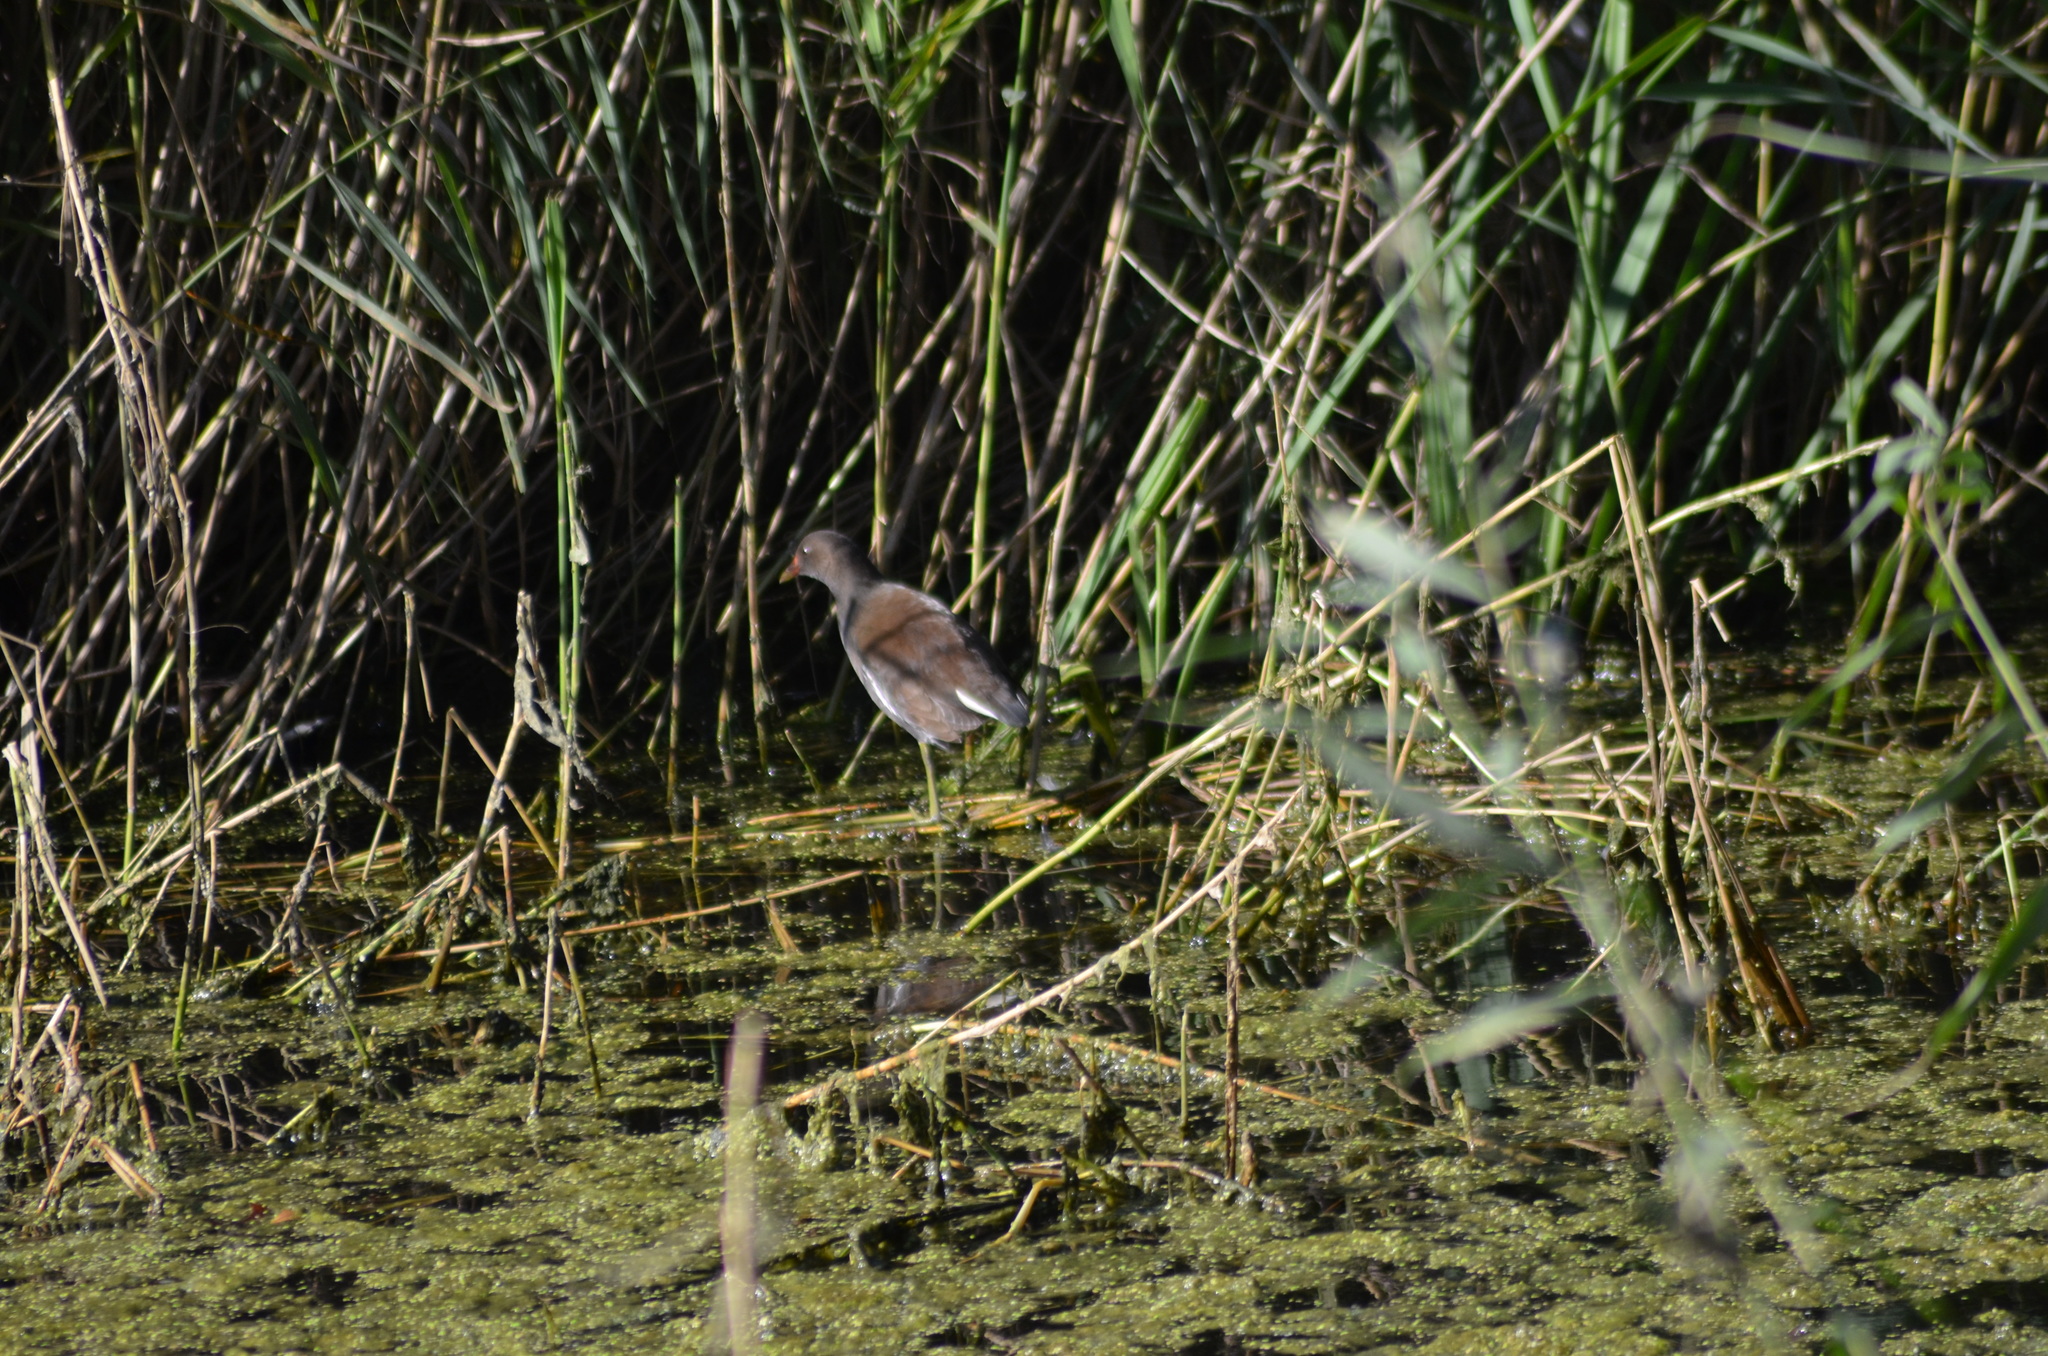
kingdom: Animalia
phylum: Chordata
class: Aves
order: Gruiformes
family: Rallidae
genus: Gallinula
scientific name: Gallinula chloropus
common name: Common moorhen
